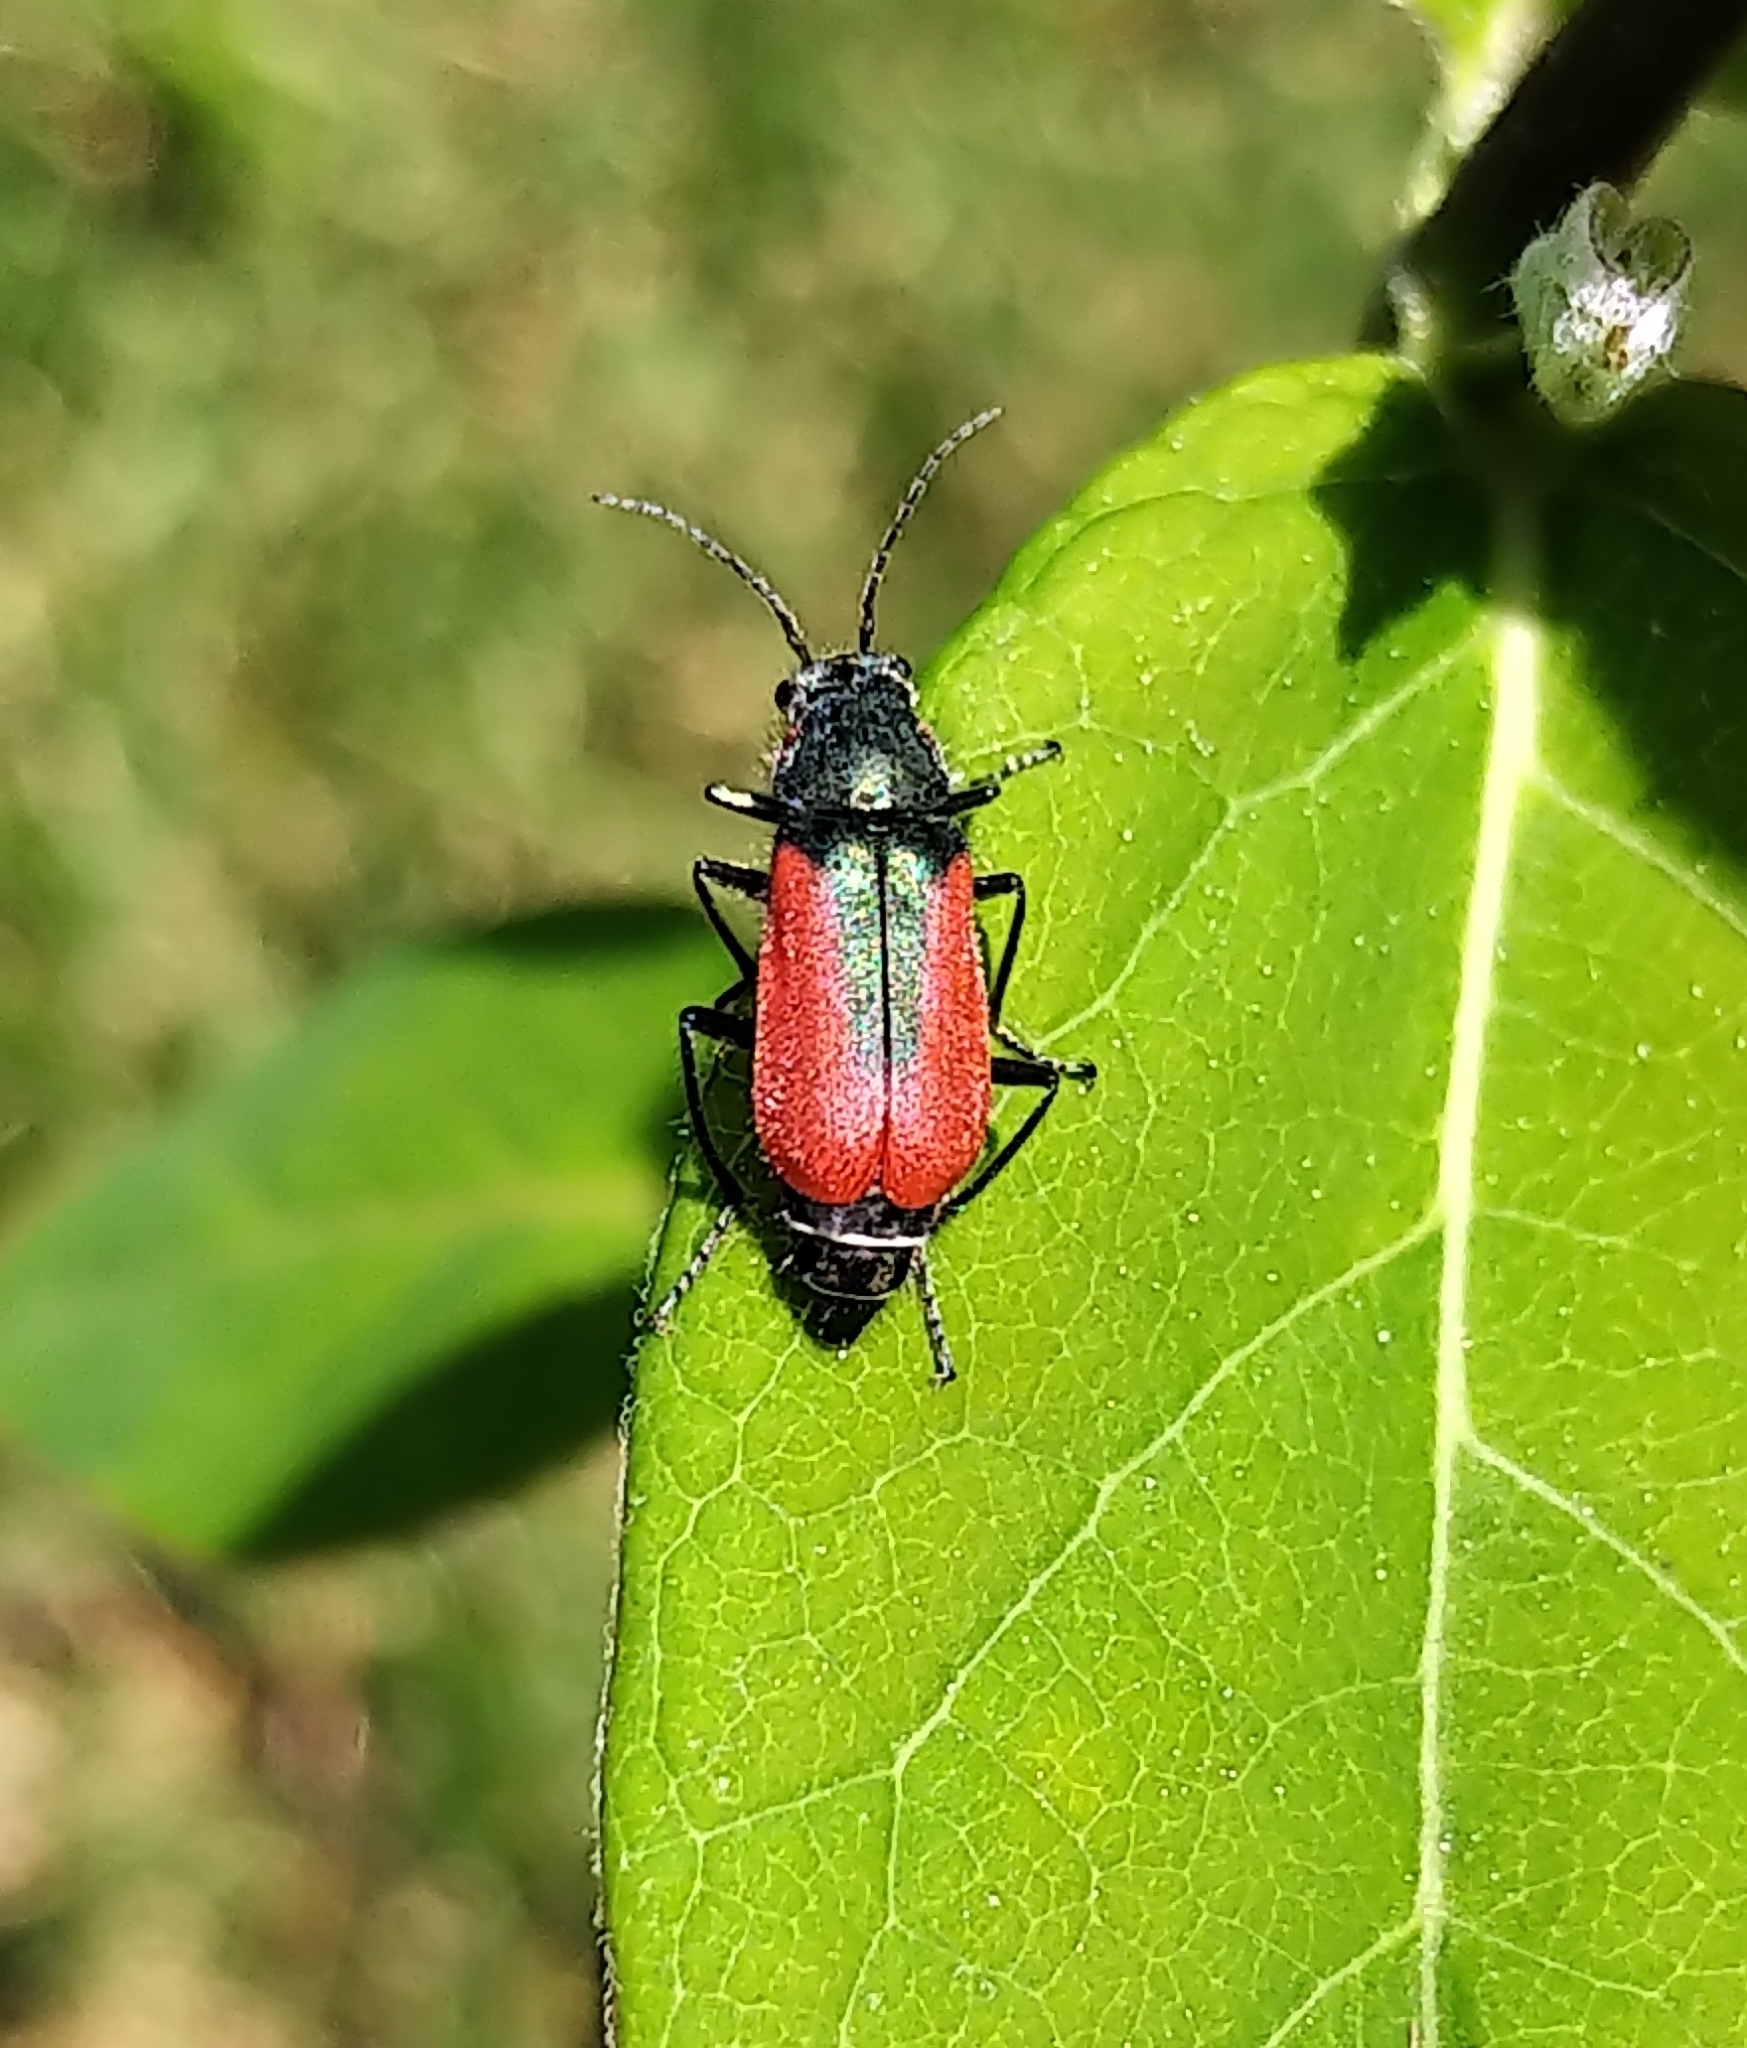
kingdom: Animalia
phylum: Arthropoda
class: Insecta
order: Coleoptera
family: Melyridae
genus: Malachius
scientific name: Malachius aeneus
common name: Scarlet malachite beetle
